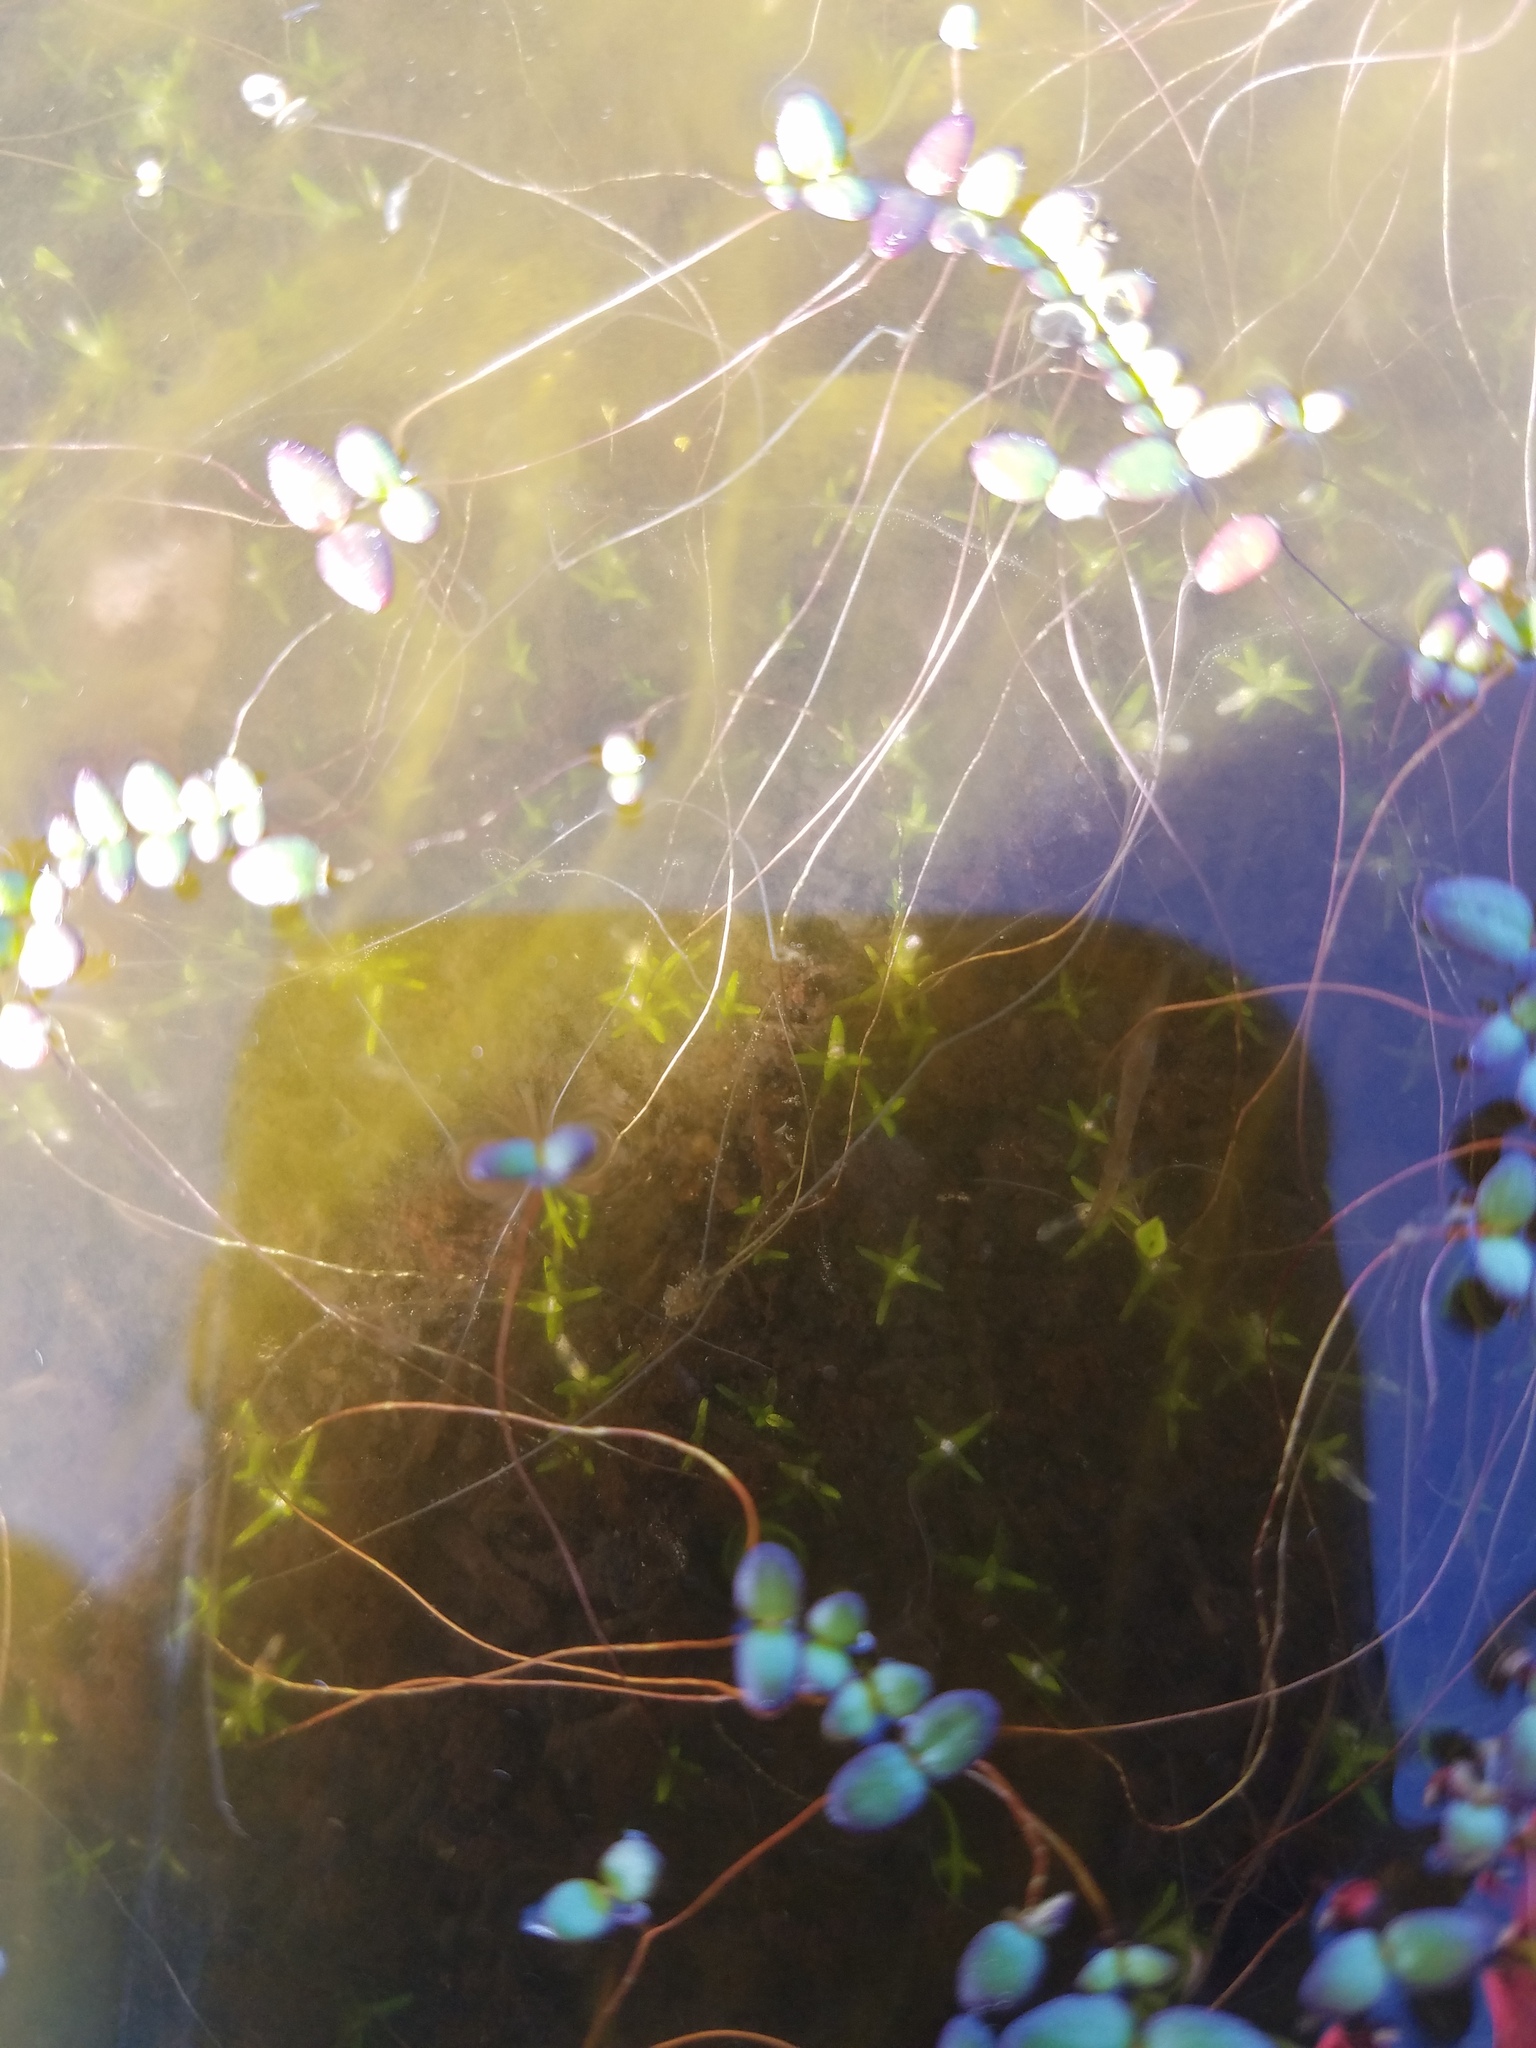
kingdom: Plantae
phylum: Tracheophyta
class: Magnoliopsida
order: Lamiales
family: Plantaginaceae
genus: Gratiola
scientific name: Gratiola amphiantha
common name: Little amphianthus
